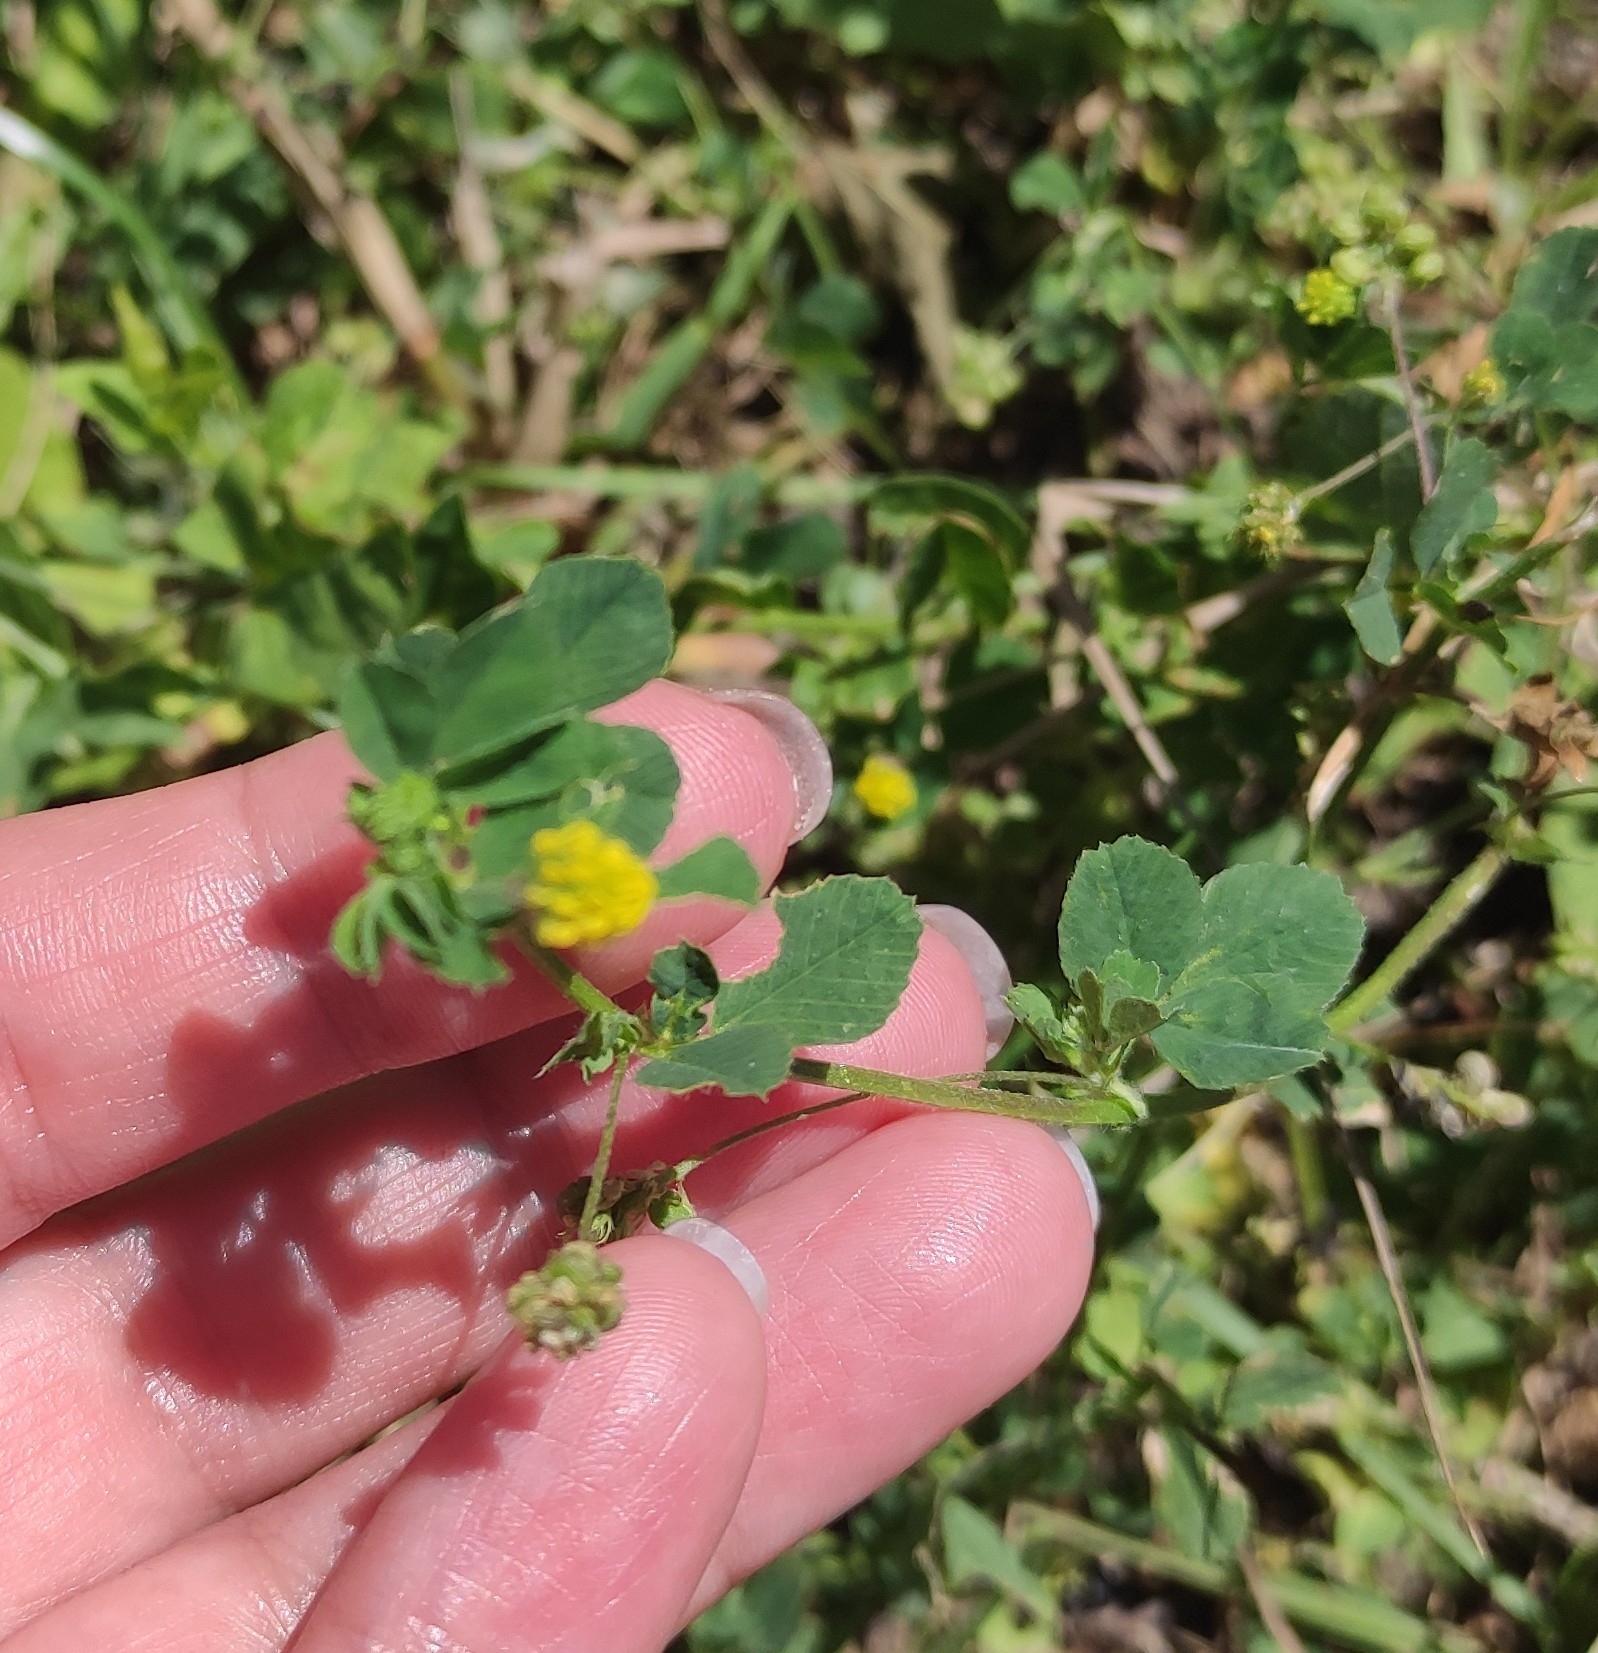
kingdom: Plantae
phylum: Tracheophyta
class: Magnoliopsida
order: Fabales
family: Fabaceae
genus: Medicago
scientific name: Medicago lupulina
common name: Black medick
